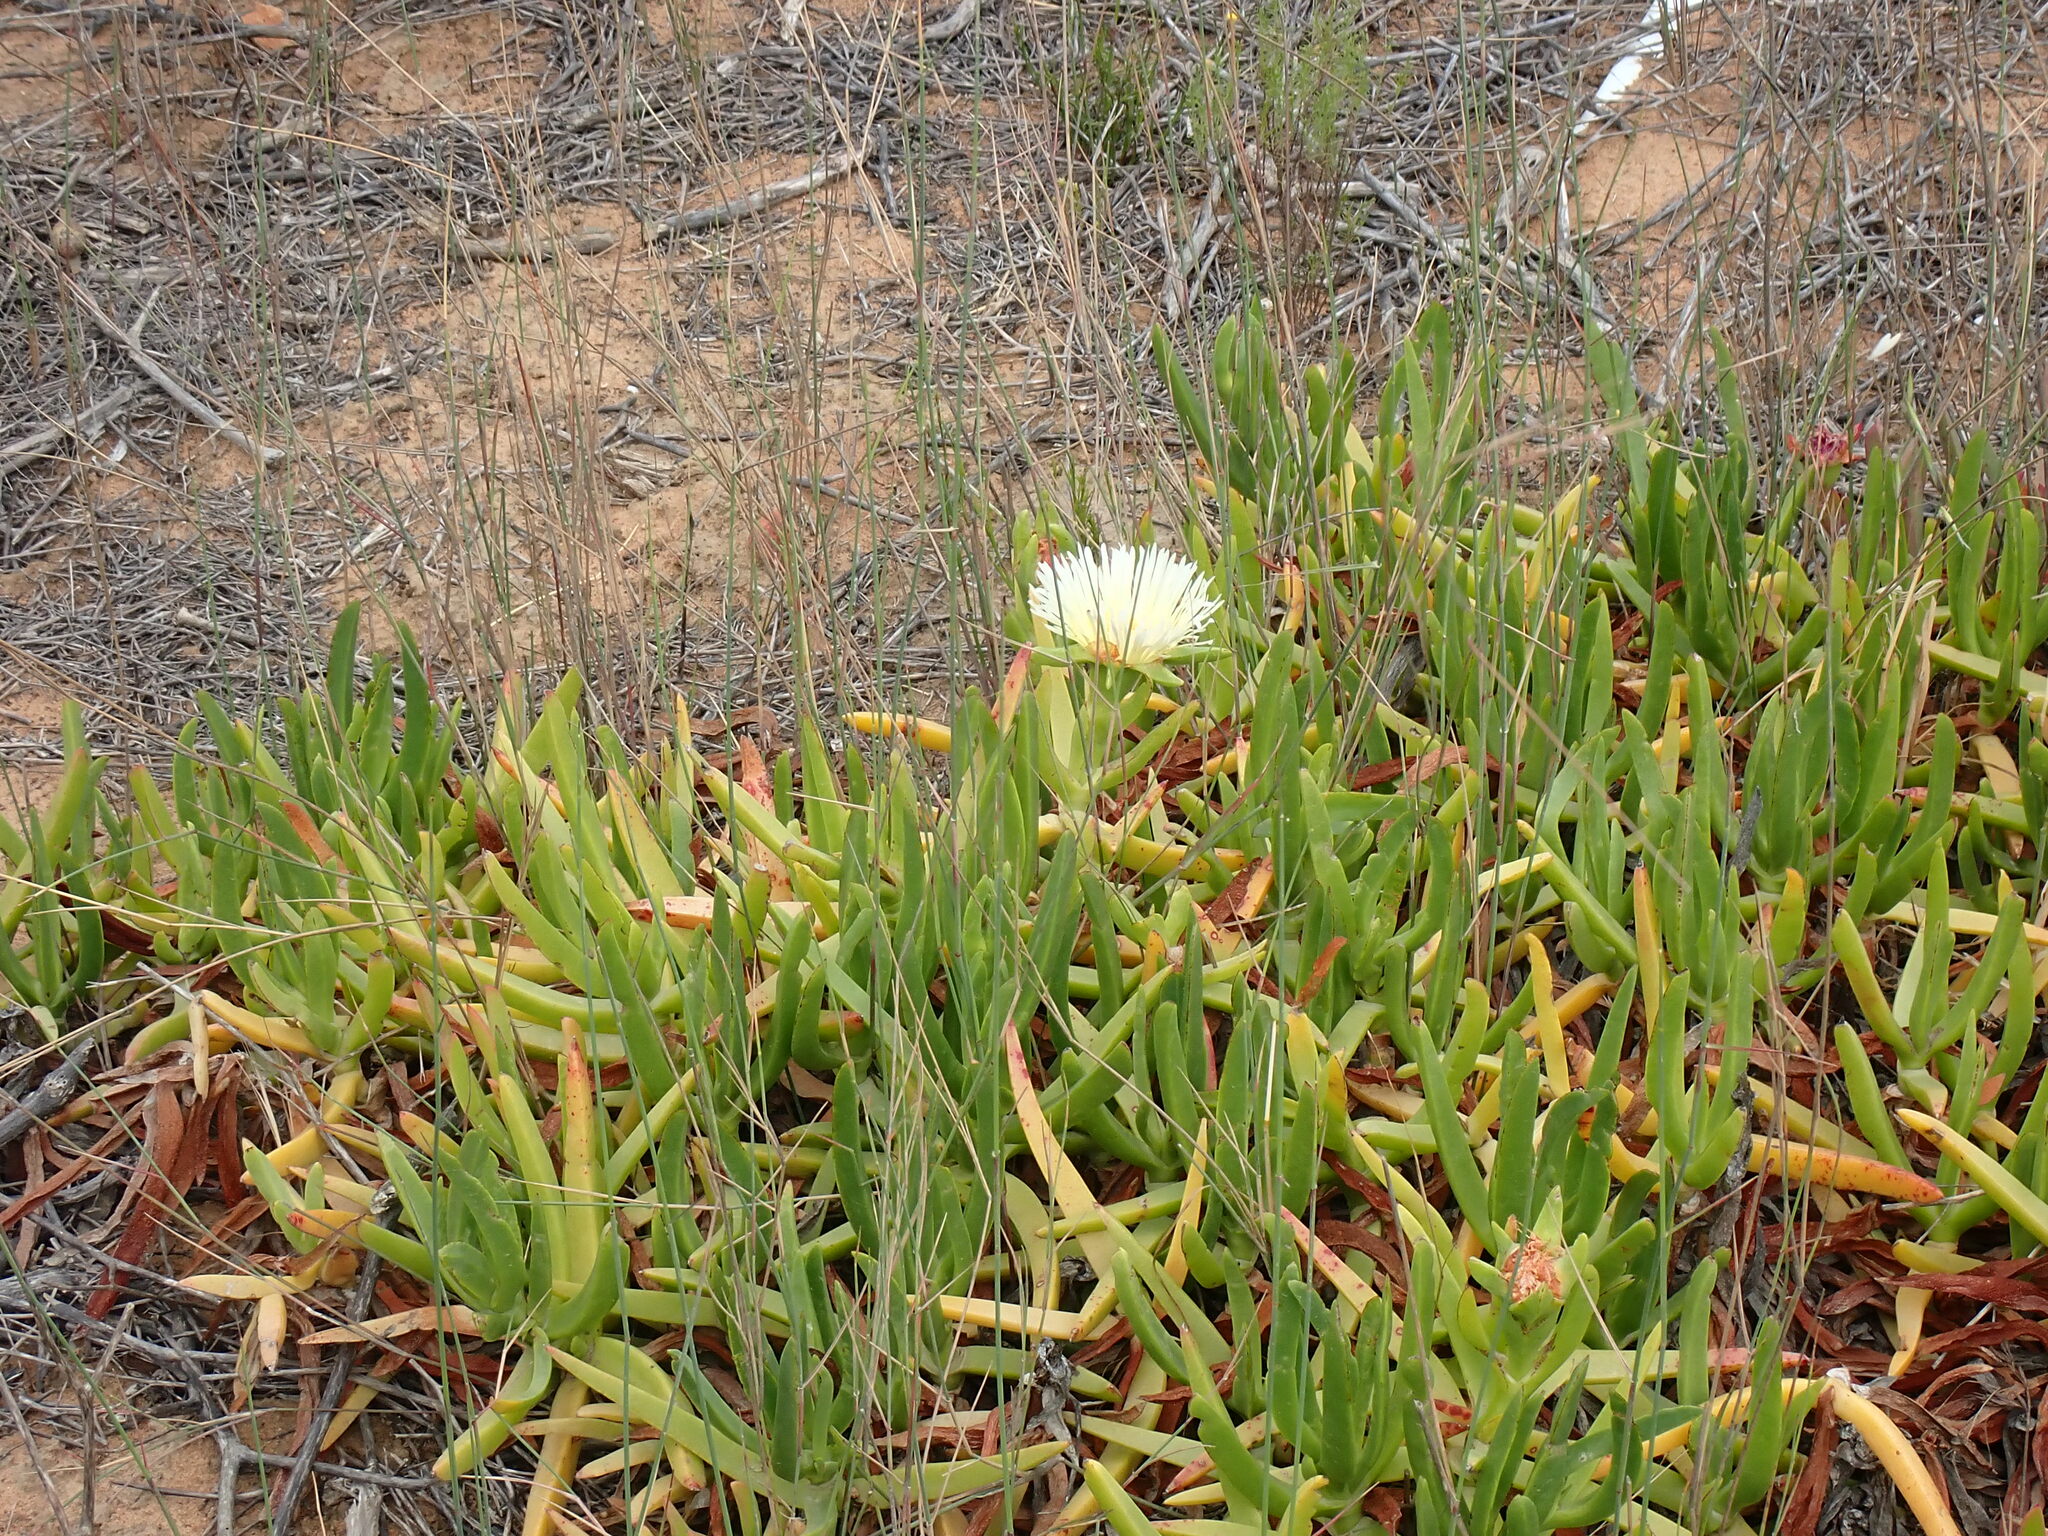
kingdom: Plantae
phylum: Tracheophyta
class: Magnoliopsida
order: Caryophyllales
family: Aizoaceae
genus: Carpobrotus
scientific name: Carpobrotus edulis
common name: Hottentot-fig
